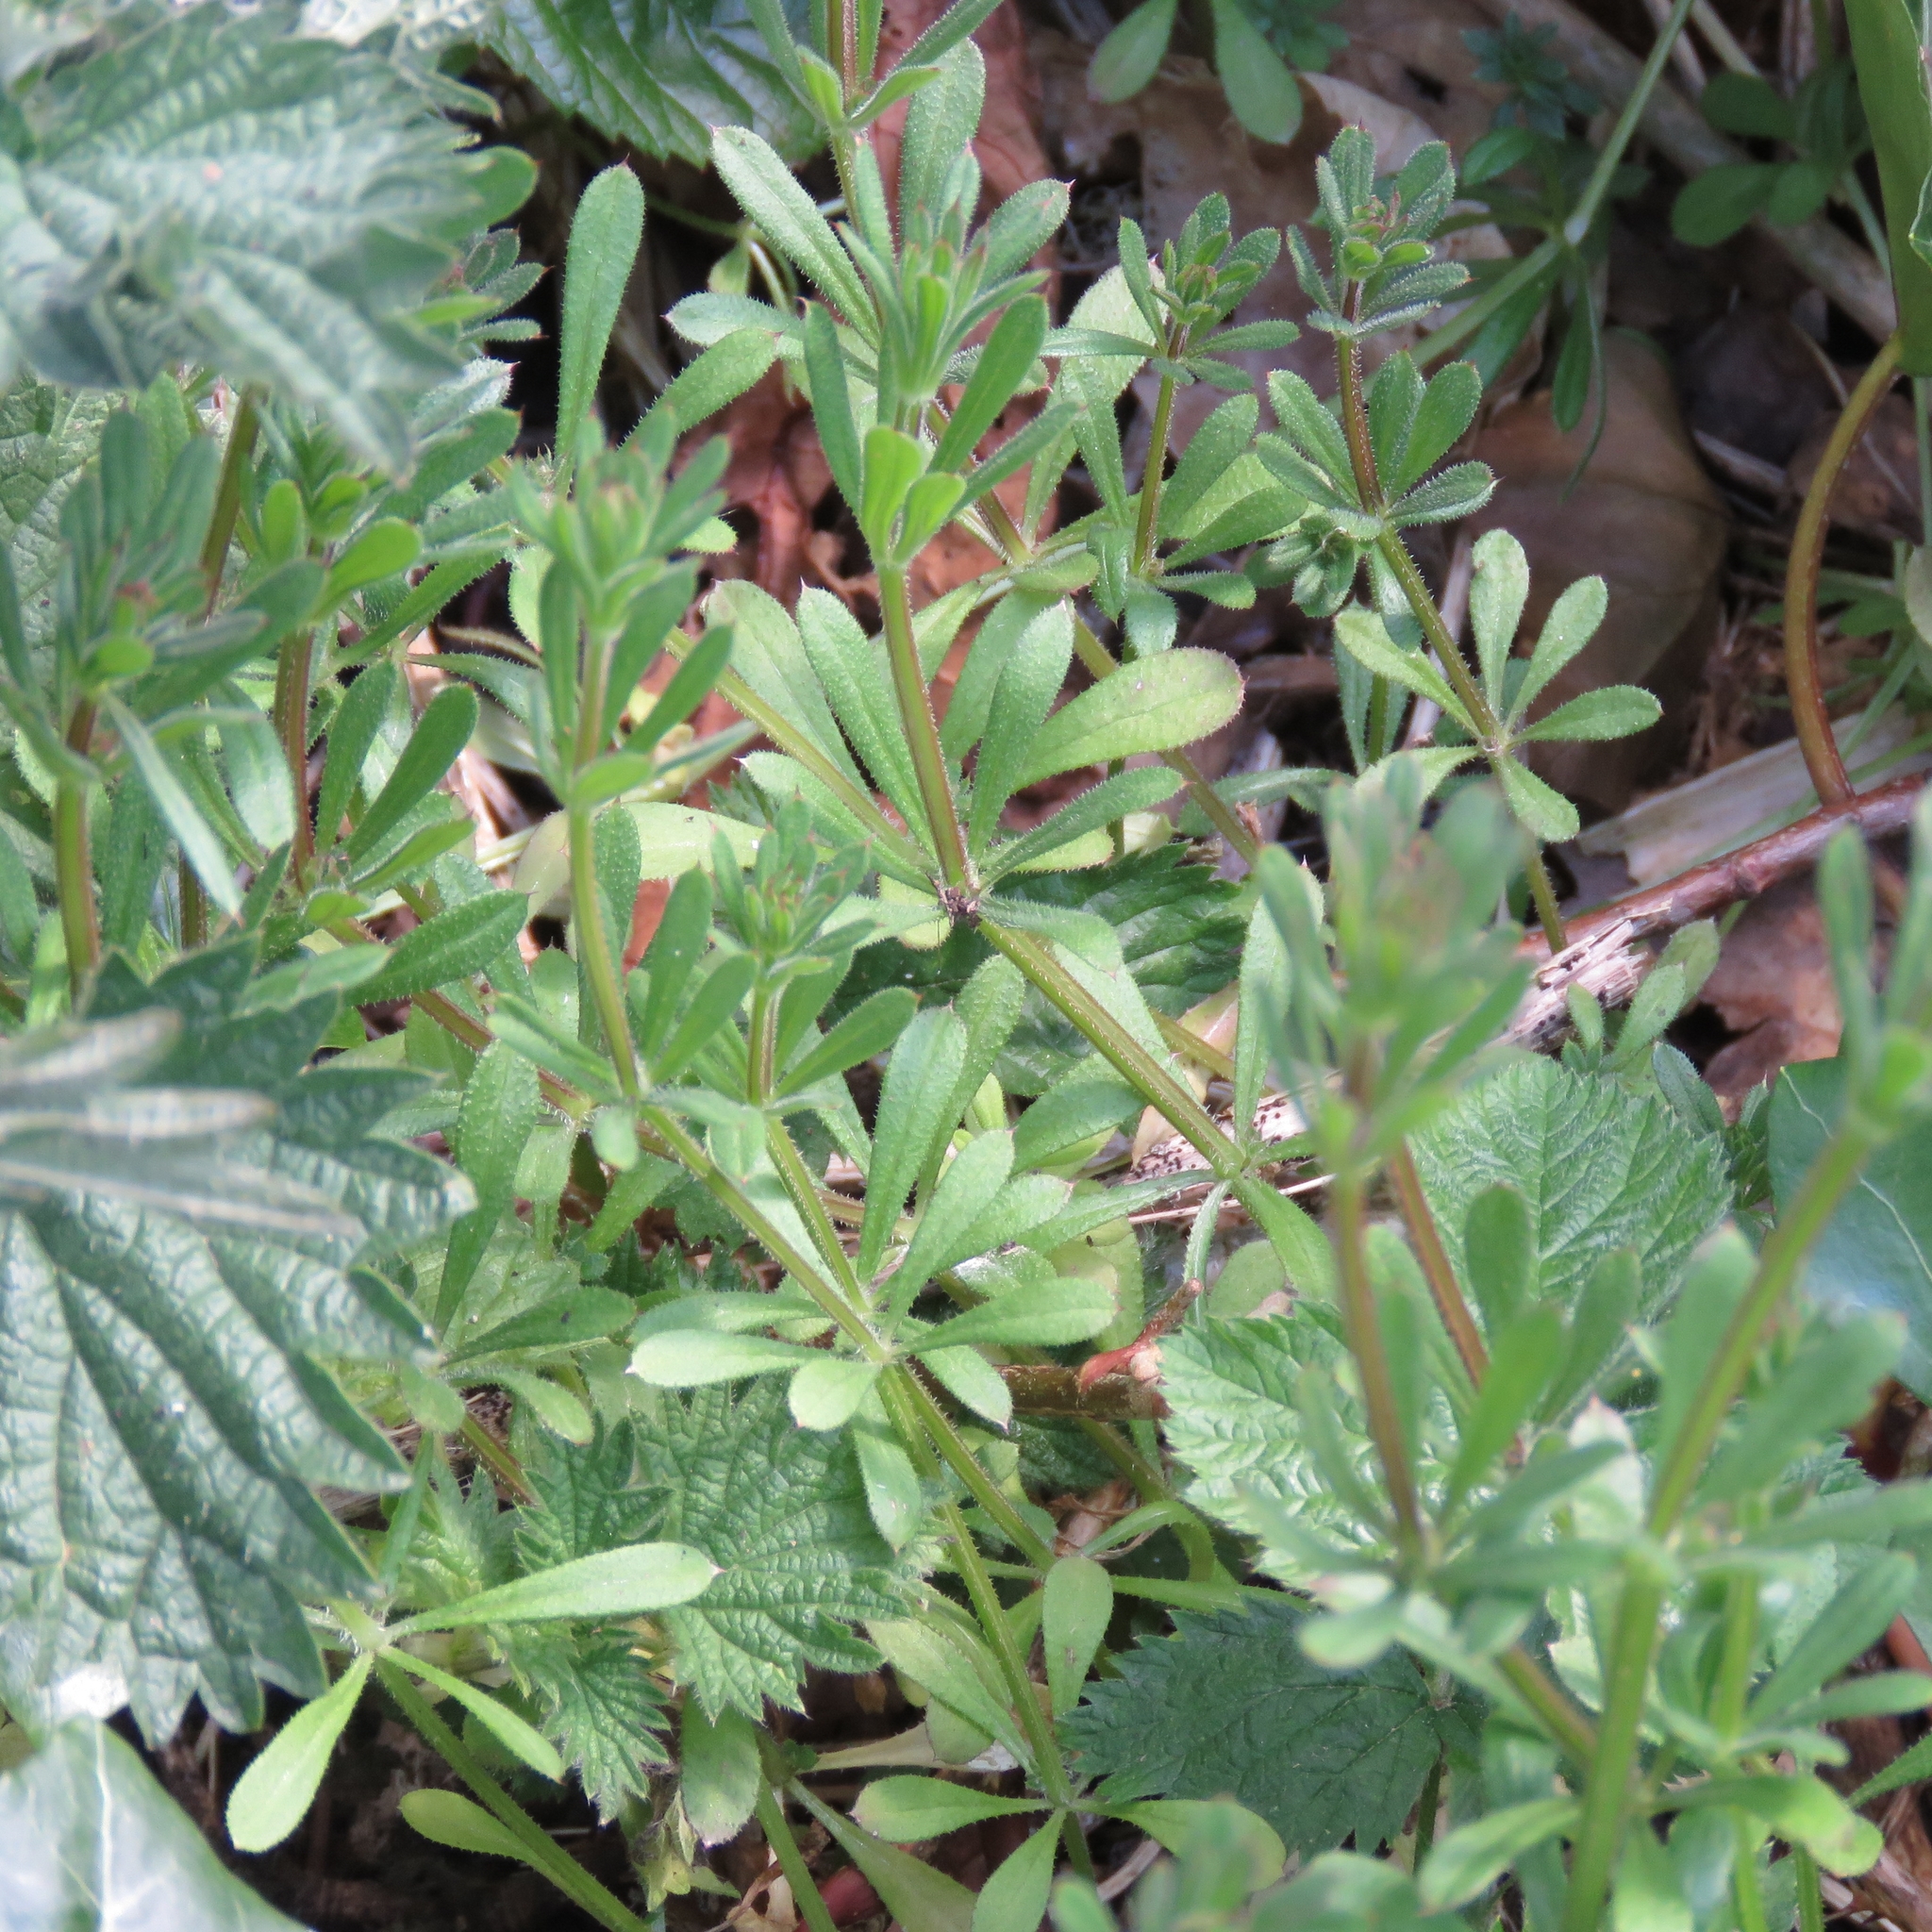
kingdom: Plantae
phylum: Tracheophyta
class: Magnoliopsida
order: Gentianales
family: Rubiaceae
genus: Galium
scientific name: Galium aparine
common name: Cleavers
